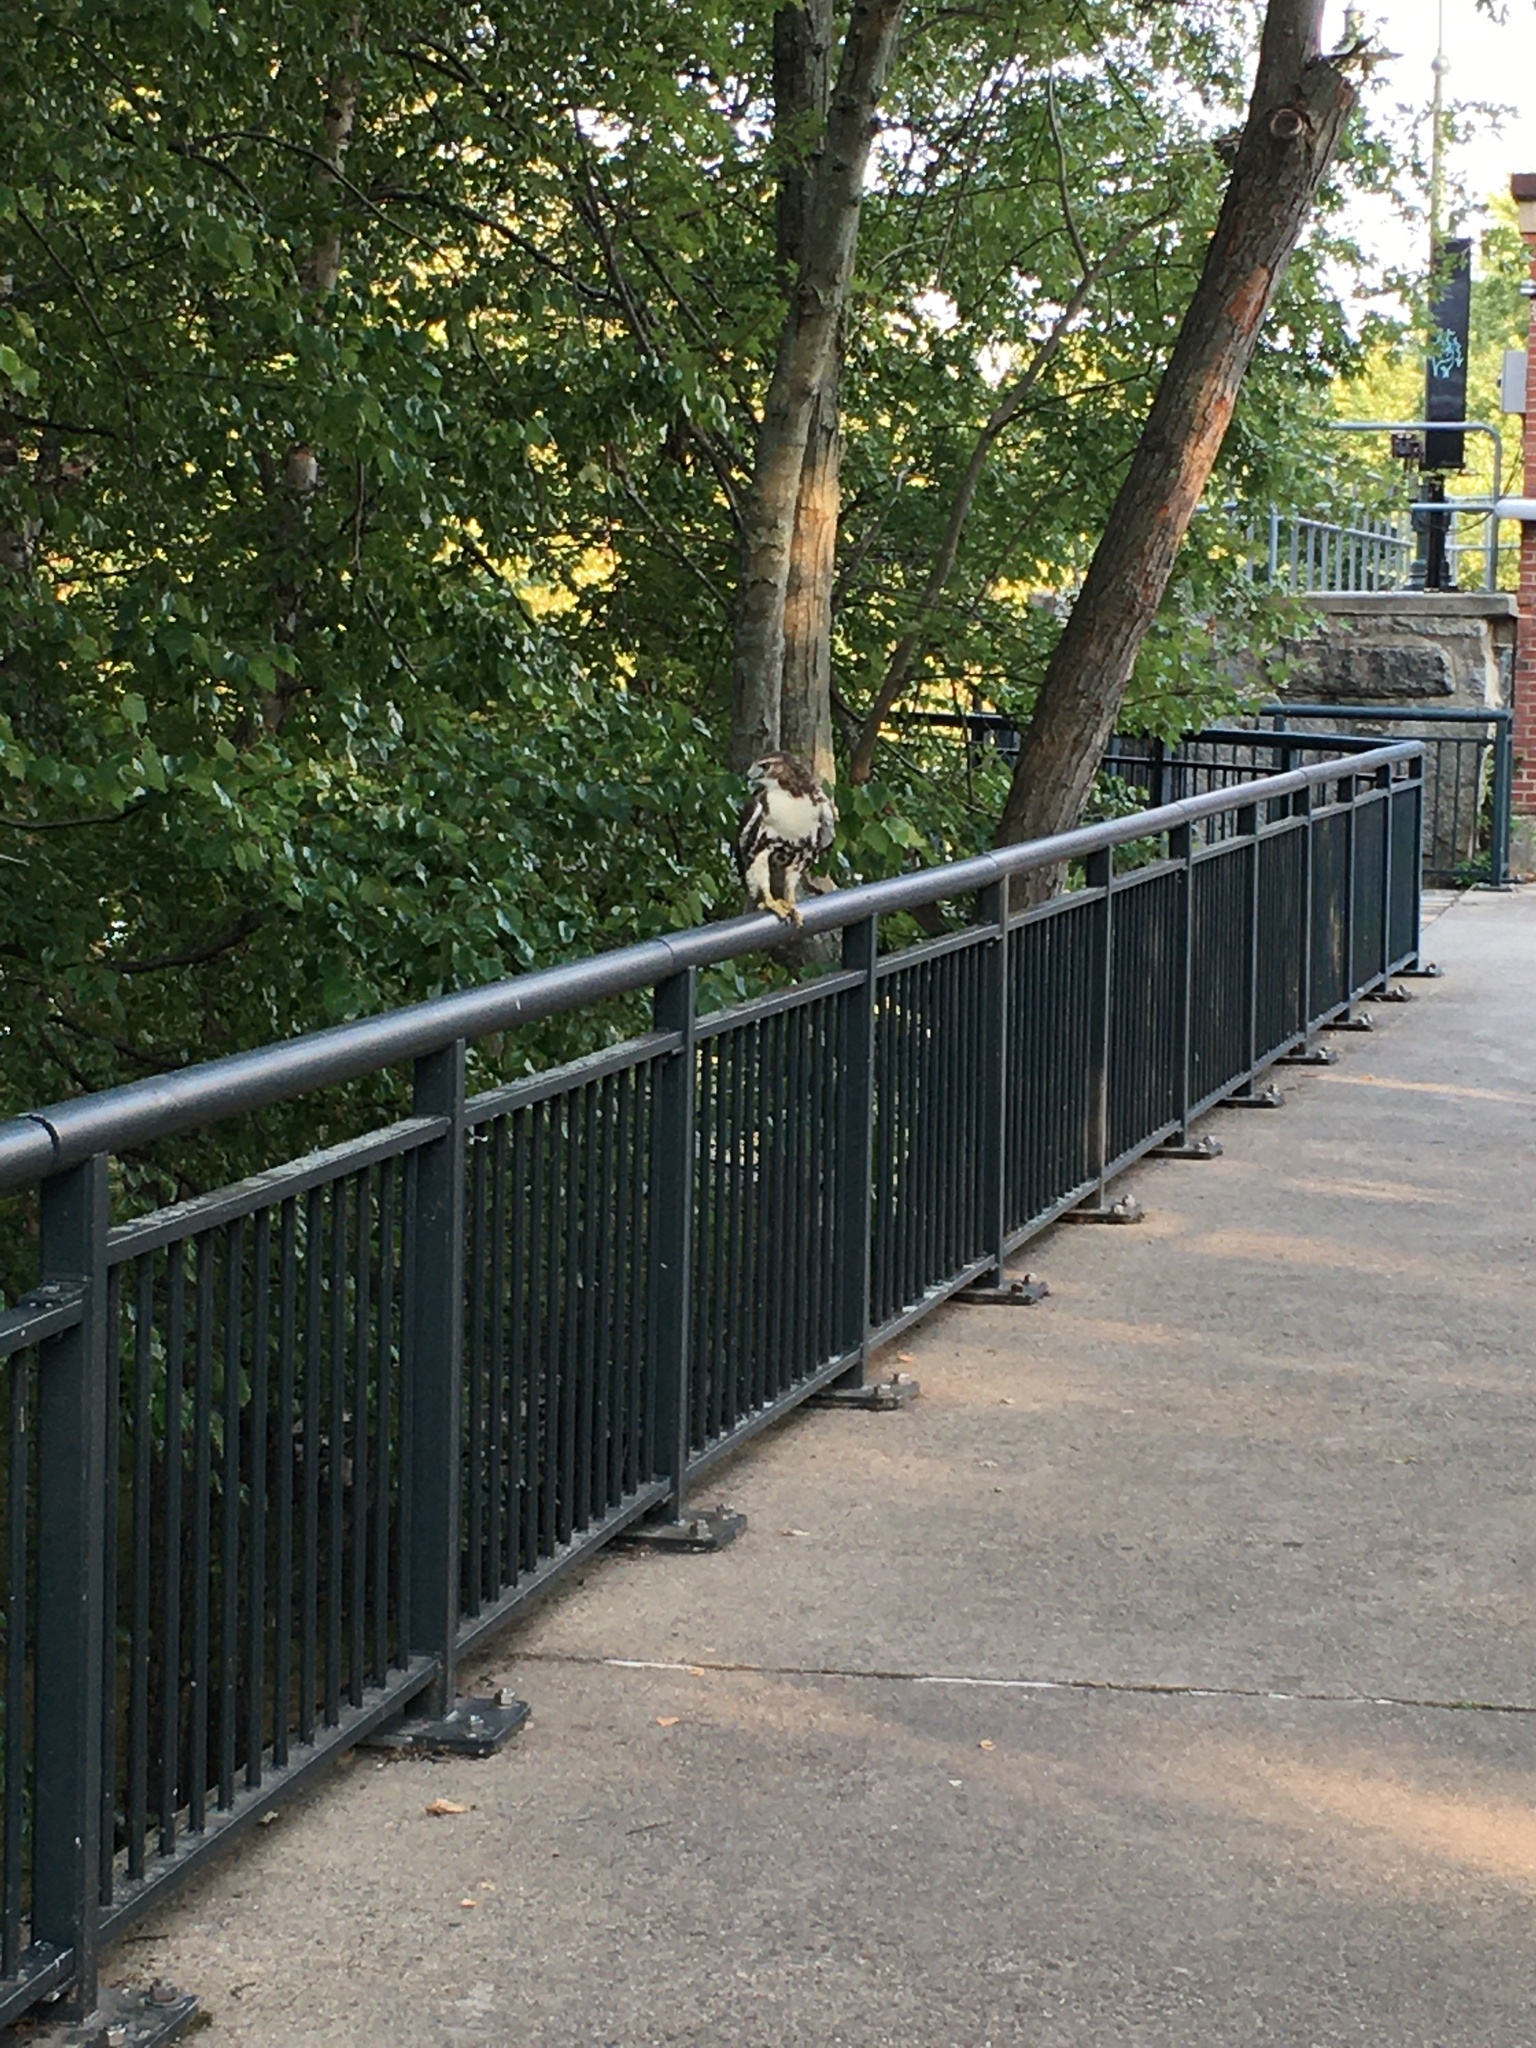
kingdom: Animalia
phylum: Chordata
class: Aves
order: Accipitriformes
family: Accipitridae
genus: Buteo
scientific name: Buteo jamaicensis
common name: Red-tailed hawk
